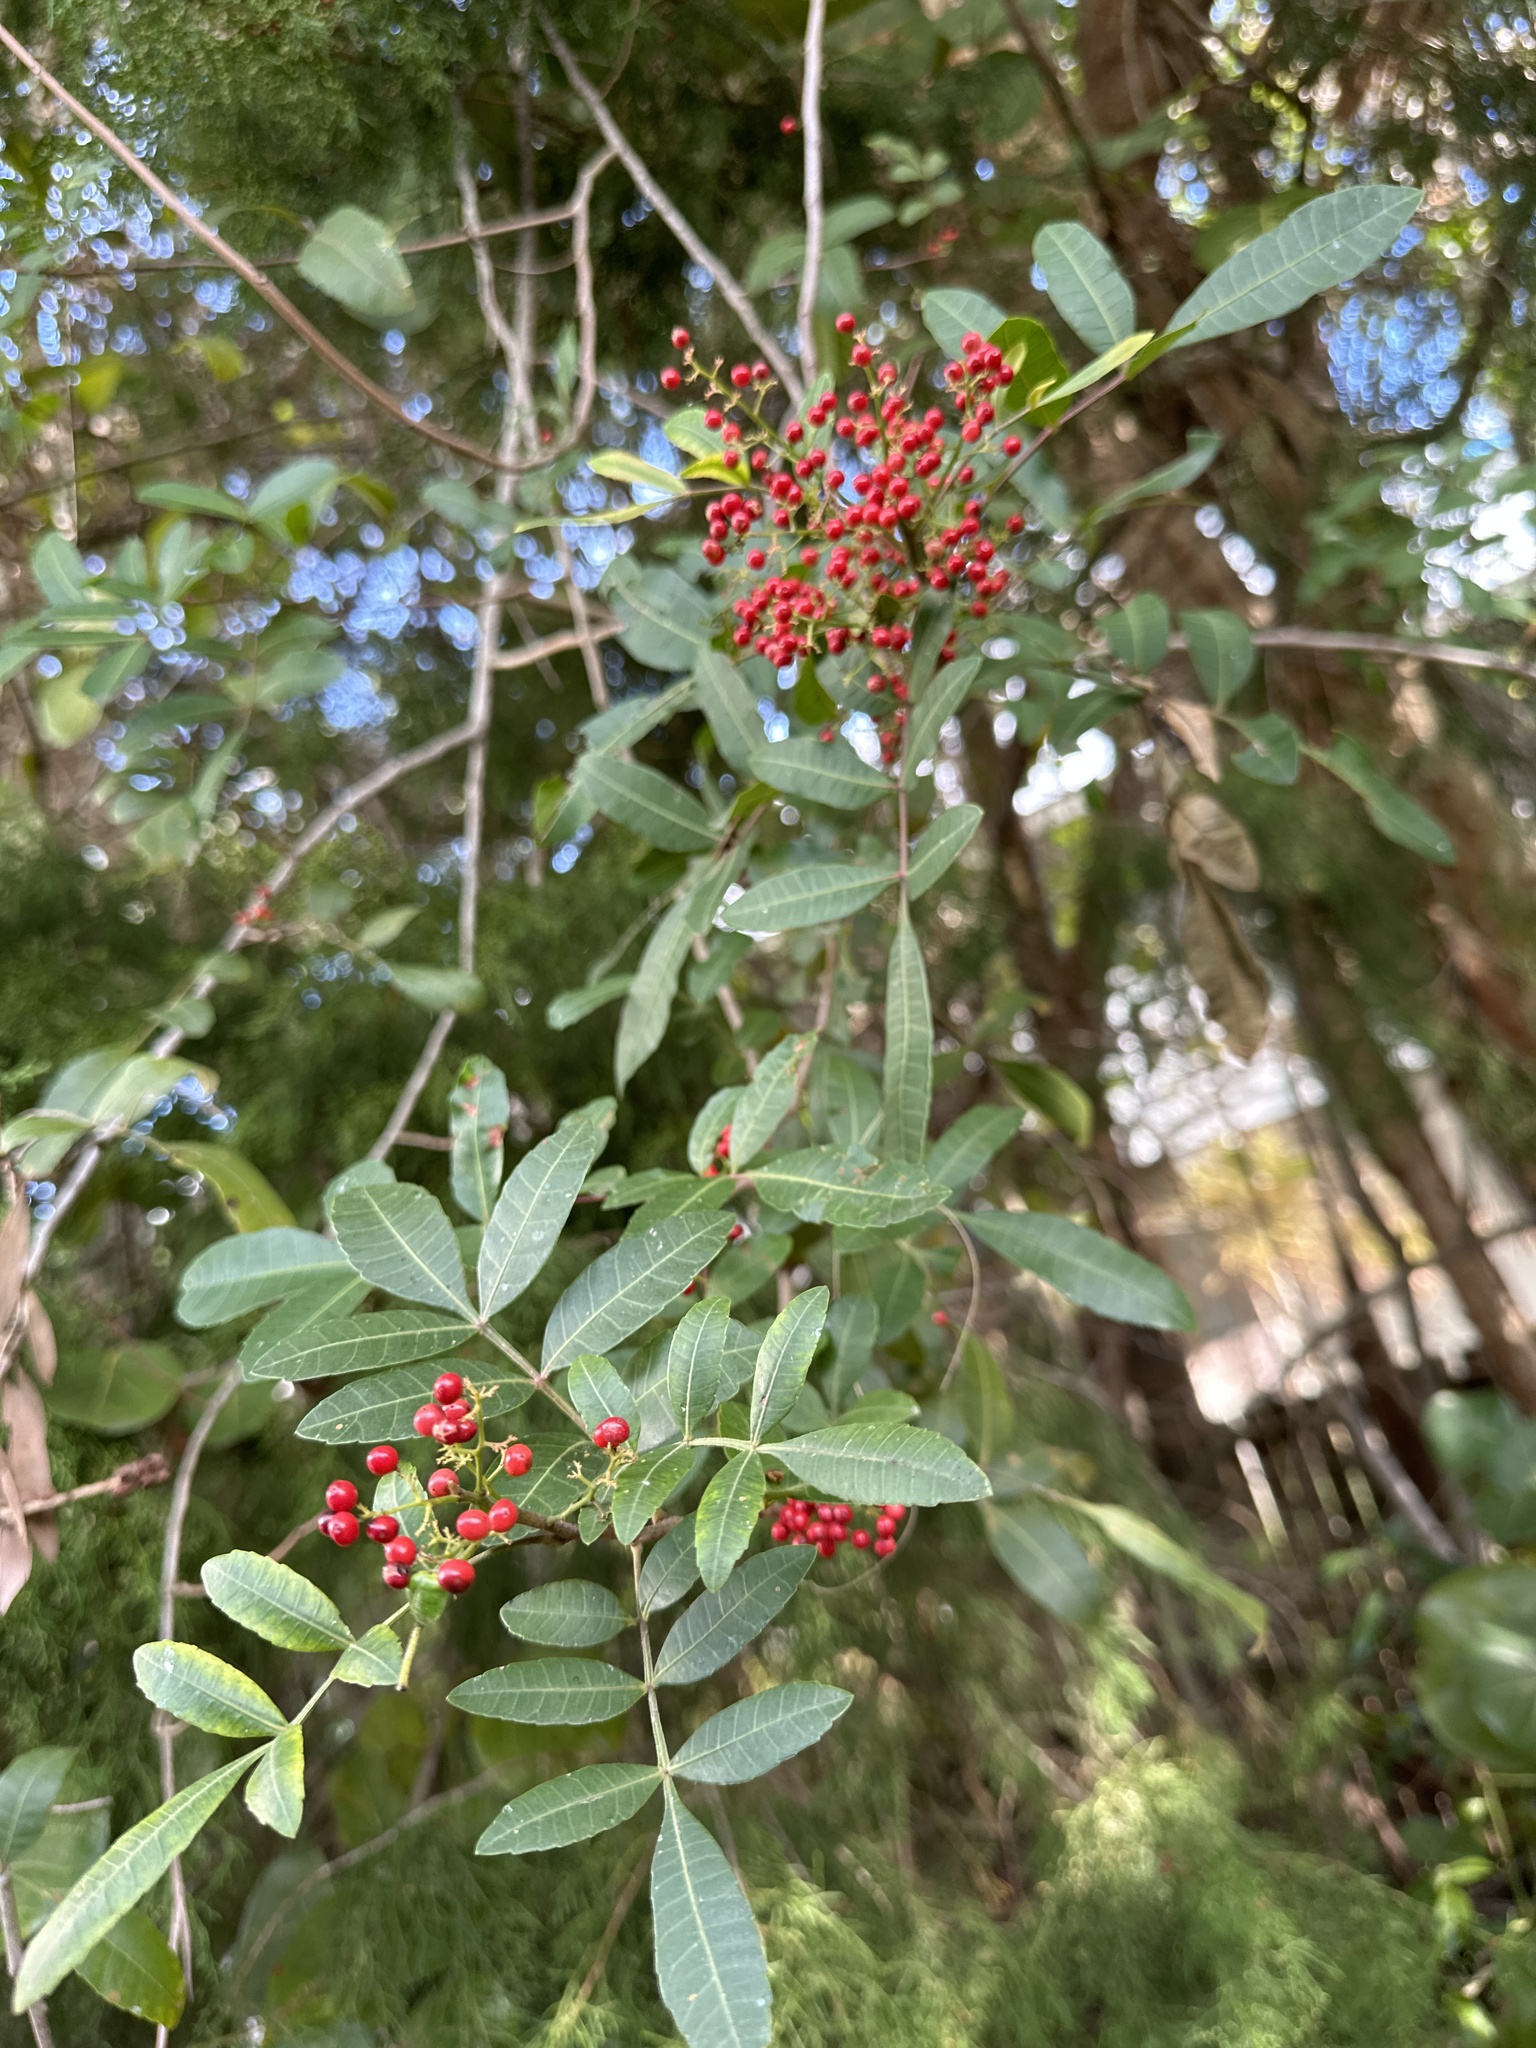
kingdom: Plantae
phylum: Tracheophyta
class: Magnoliopsida
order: Sapindales
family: Anacardiaceae
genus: Schinus
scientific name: Schinus terebinthifolia
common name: Brazilian peppertree
